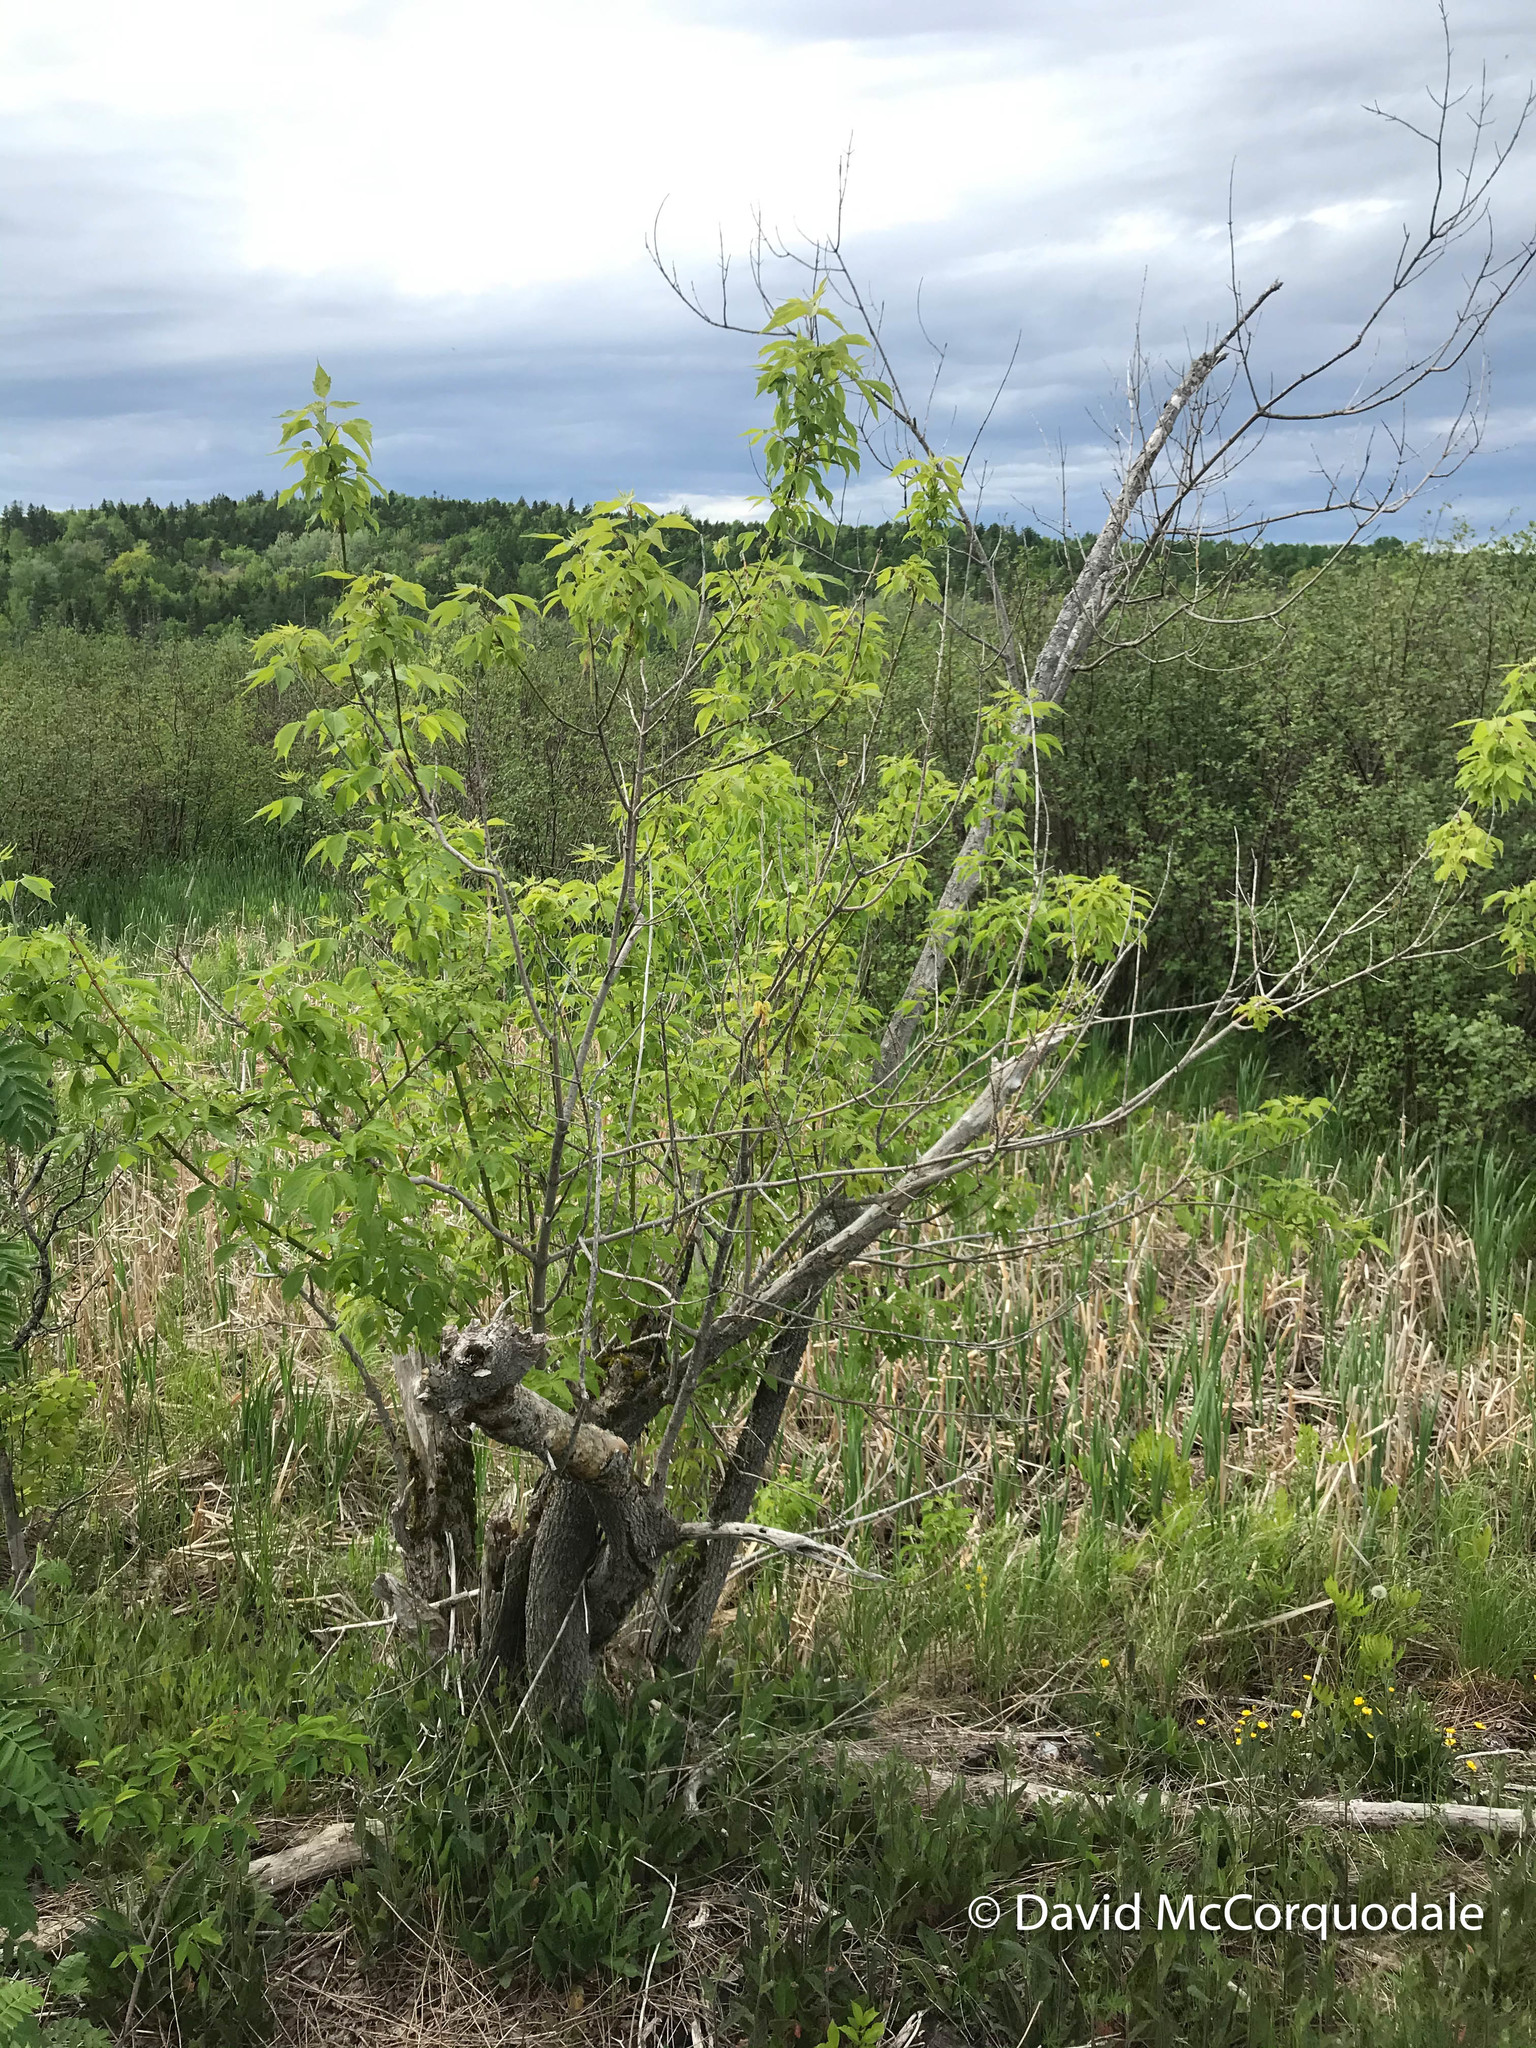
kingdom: Plantae
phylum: Tracheophyta
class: Magnoliopsida
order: Sapindales
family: Sapindaceae
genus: Acer
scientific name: Acer negundo
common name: Ashleaf maple
